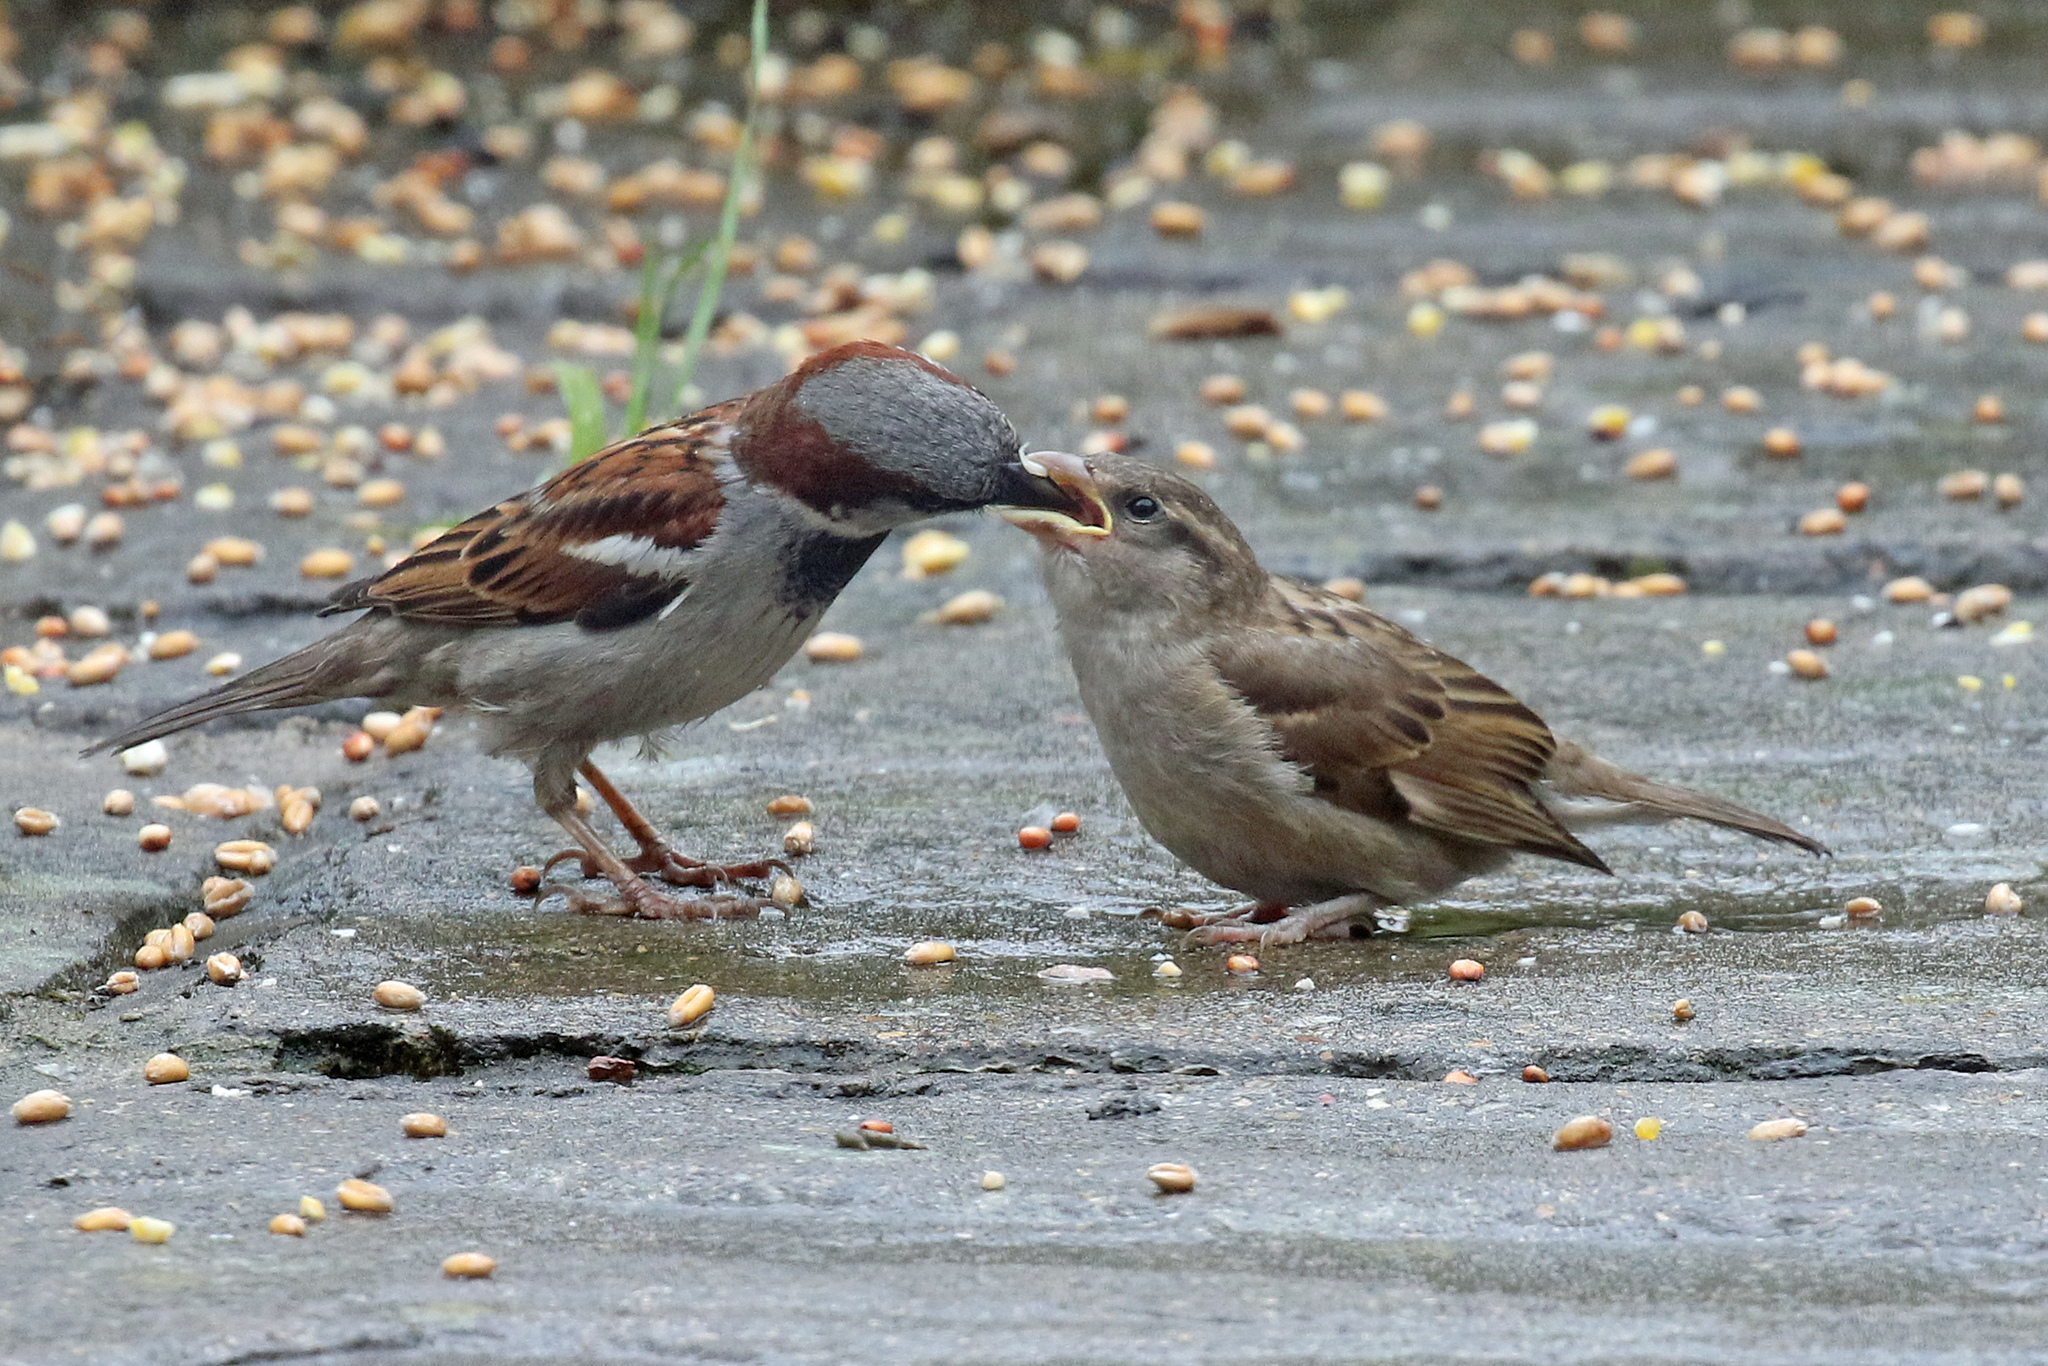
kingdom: Animalia
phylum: Chordata
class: Aves
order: Passeriformes
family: Passeridae
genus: Passer
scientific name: Passer domesticus
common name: House sparrow
